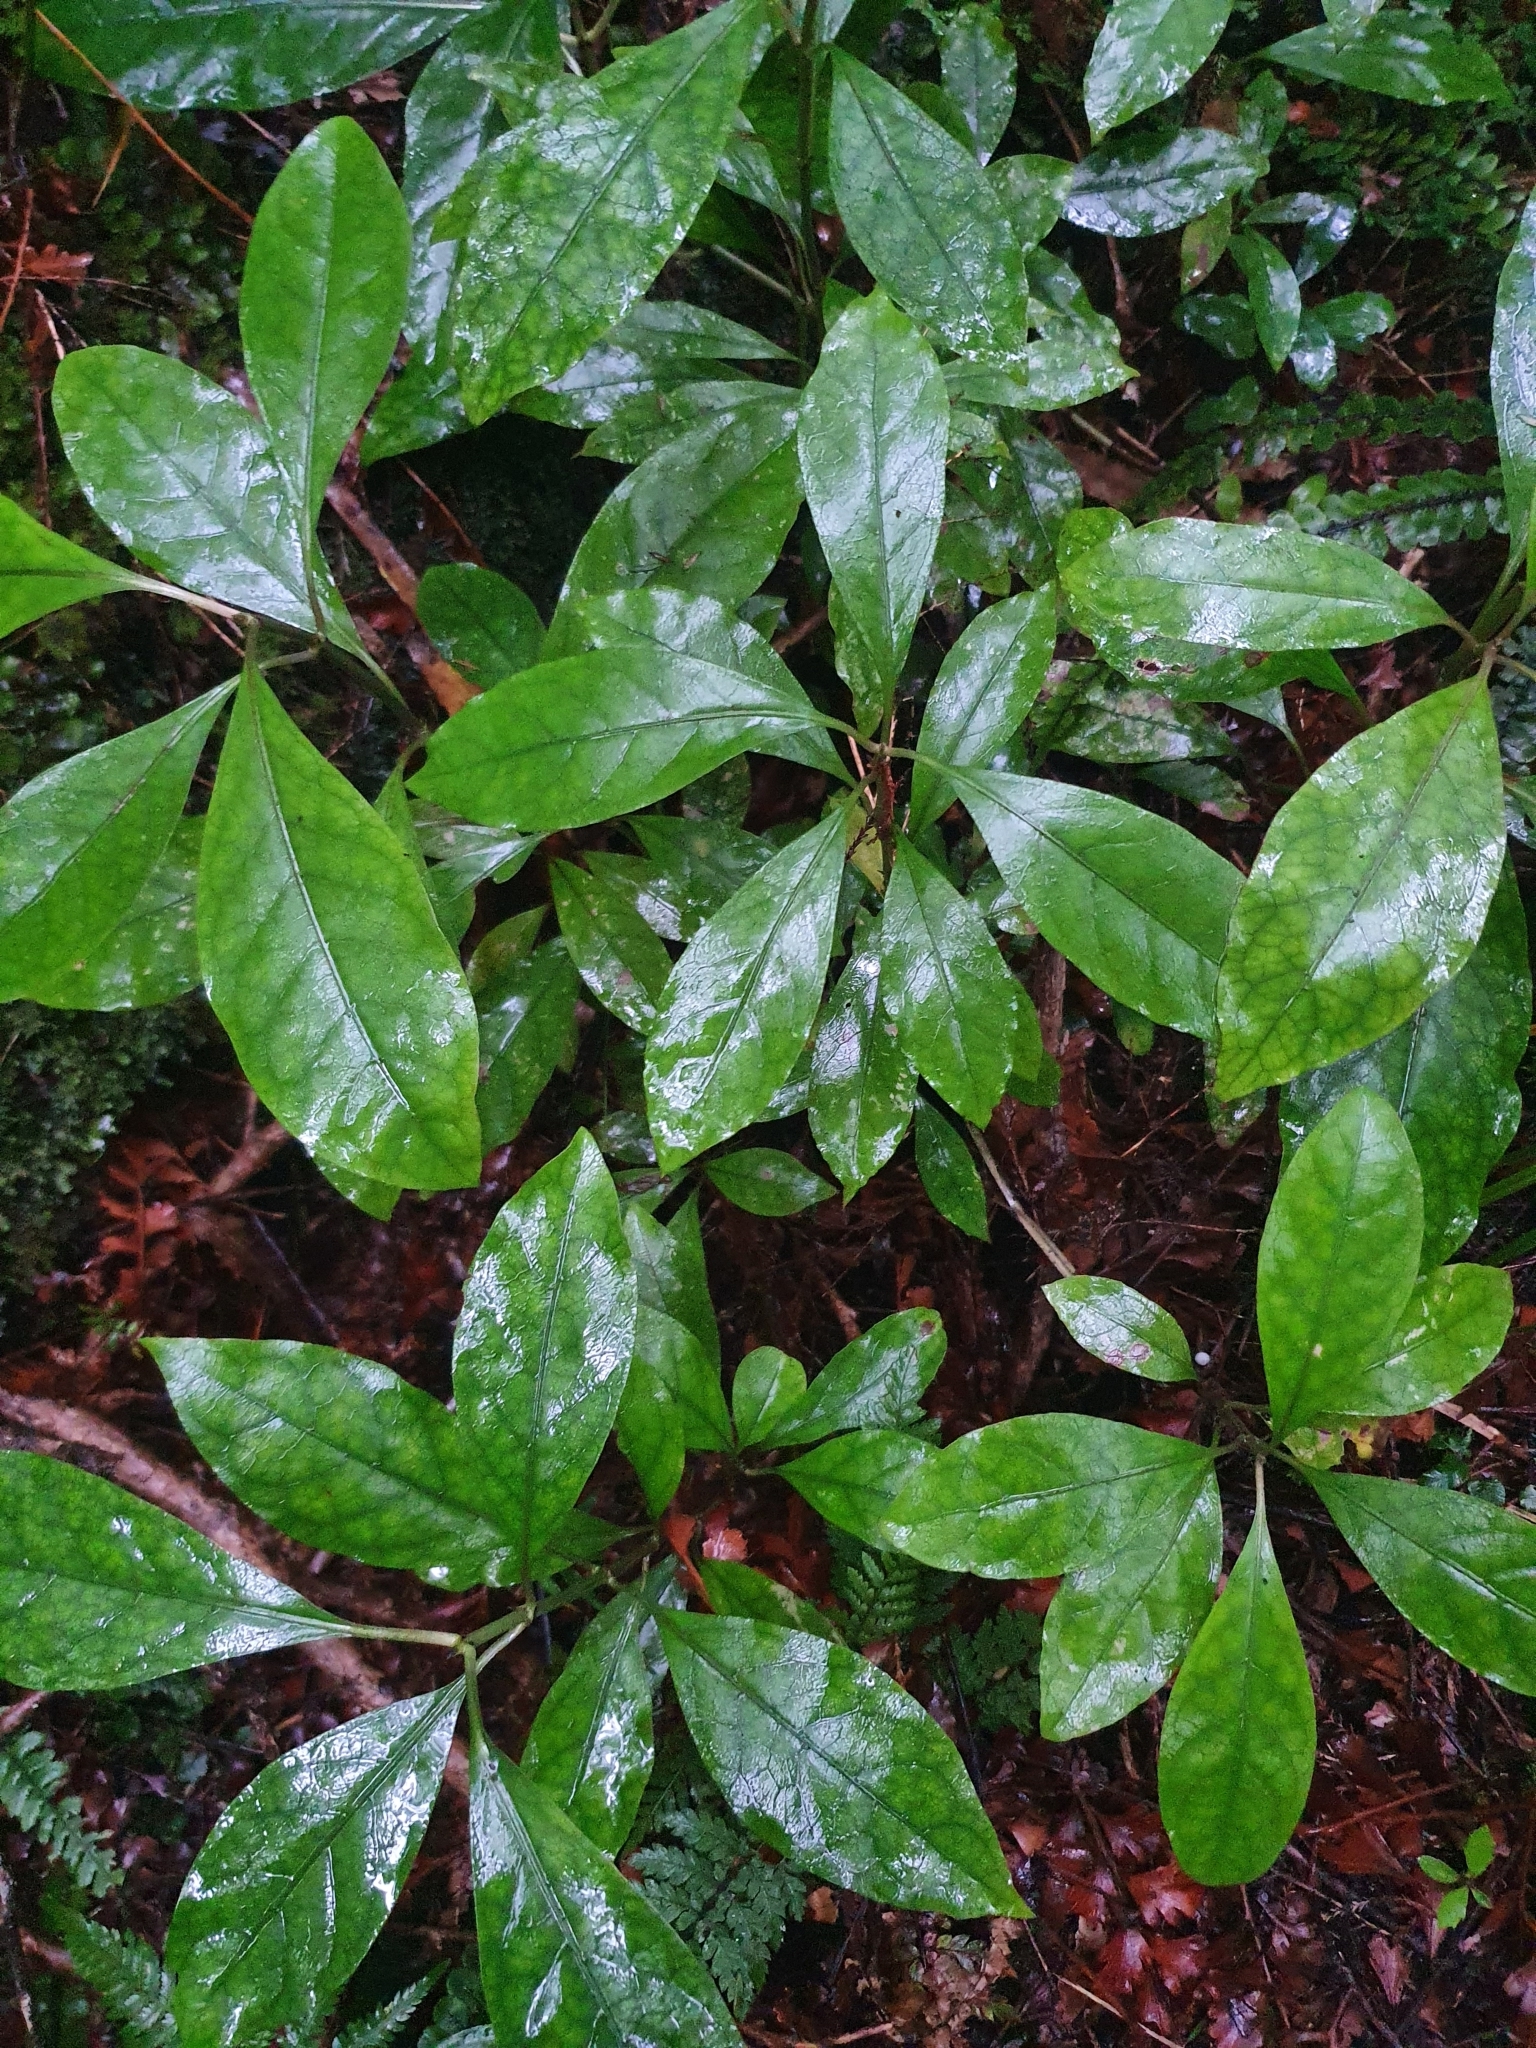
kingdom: Plantae
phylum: Tracheophyta
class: Magnoliopsida
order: Gentianales
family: Rubiaceae
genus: Coprosma
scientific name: Coprosma autumnalis
